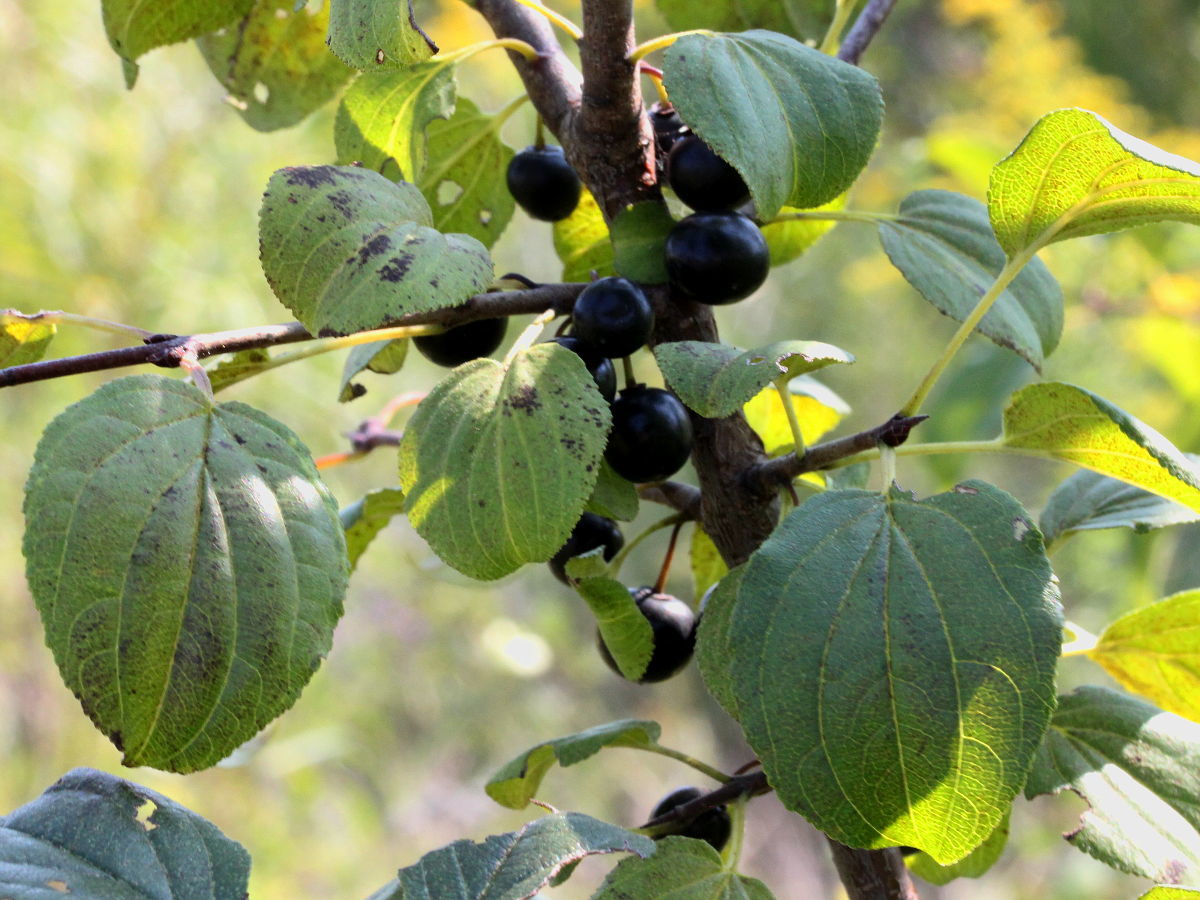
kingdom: Plantae
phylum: Tracheophyta
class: Magnoliopsida
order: Rosales
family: Rhamnaceae
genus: Rhamnus
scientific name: Rhamnus cathartica
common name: Common buckthorn
